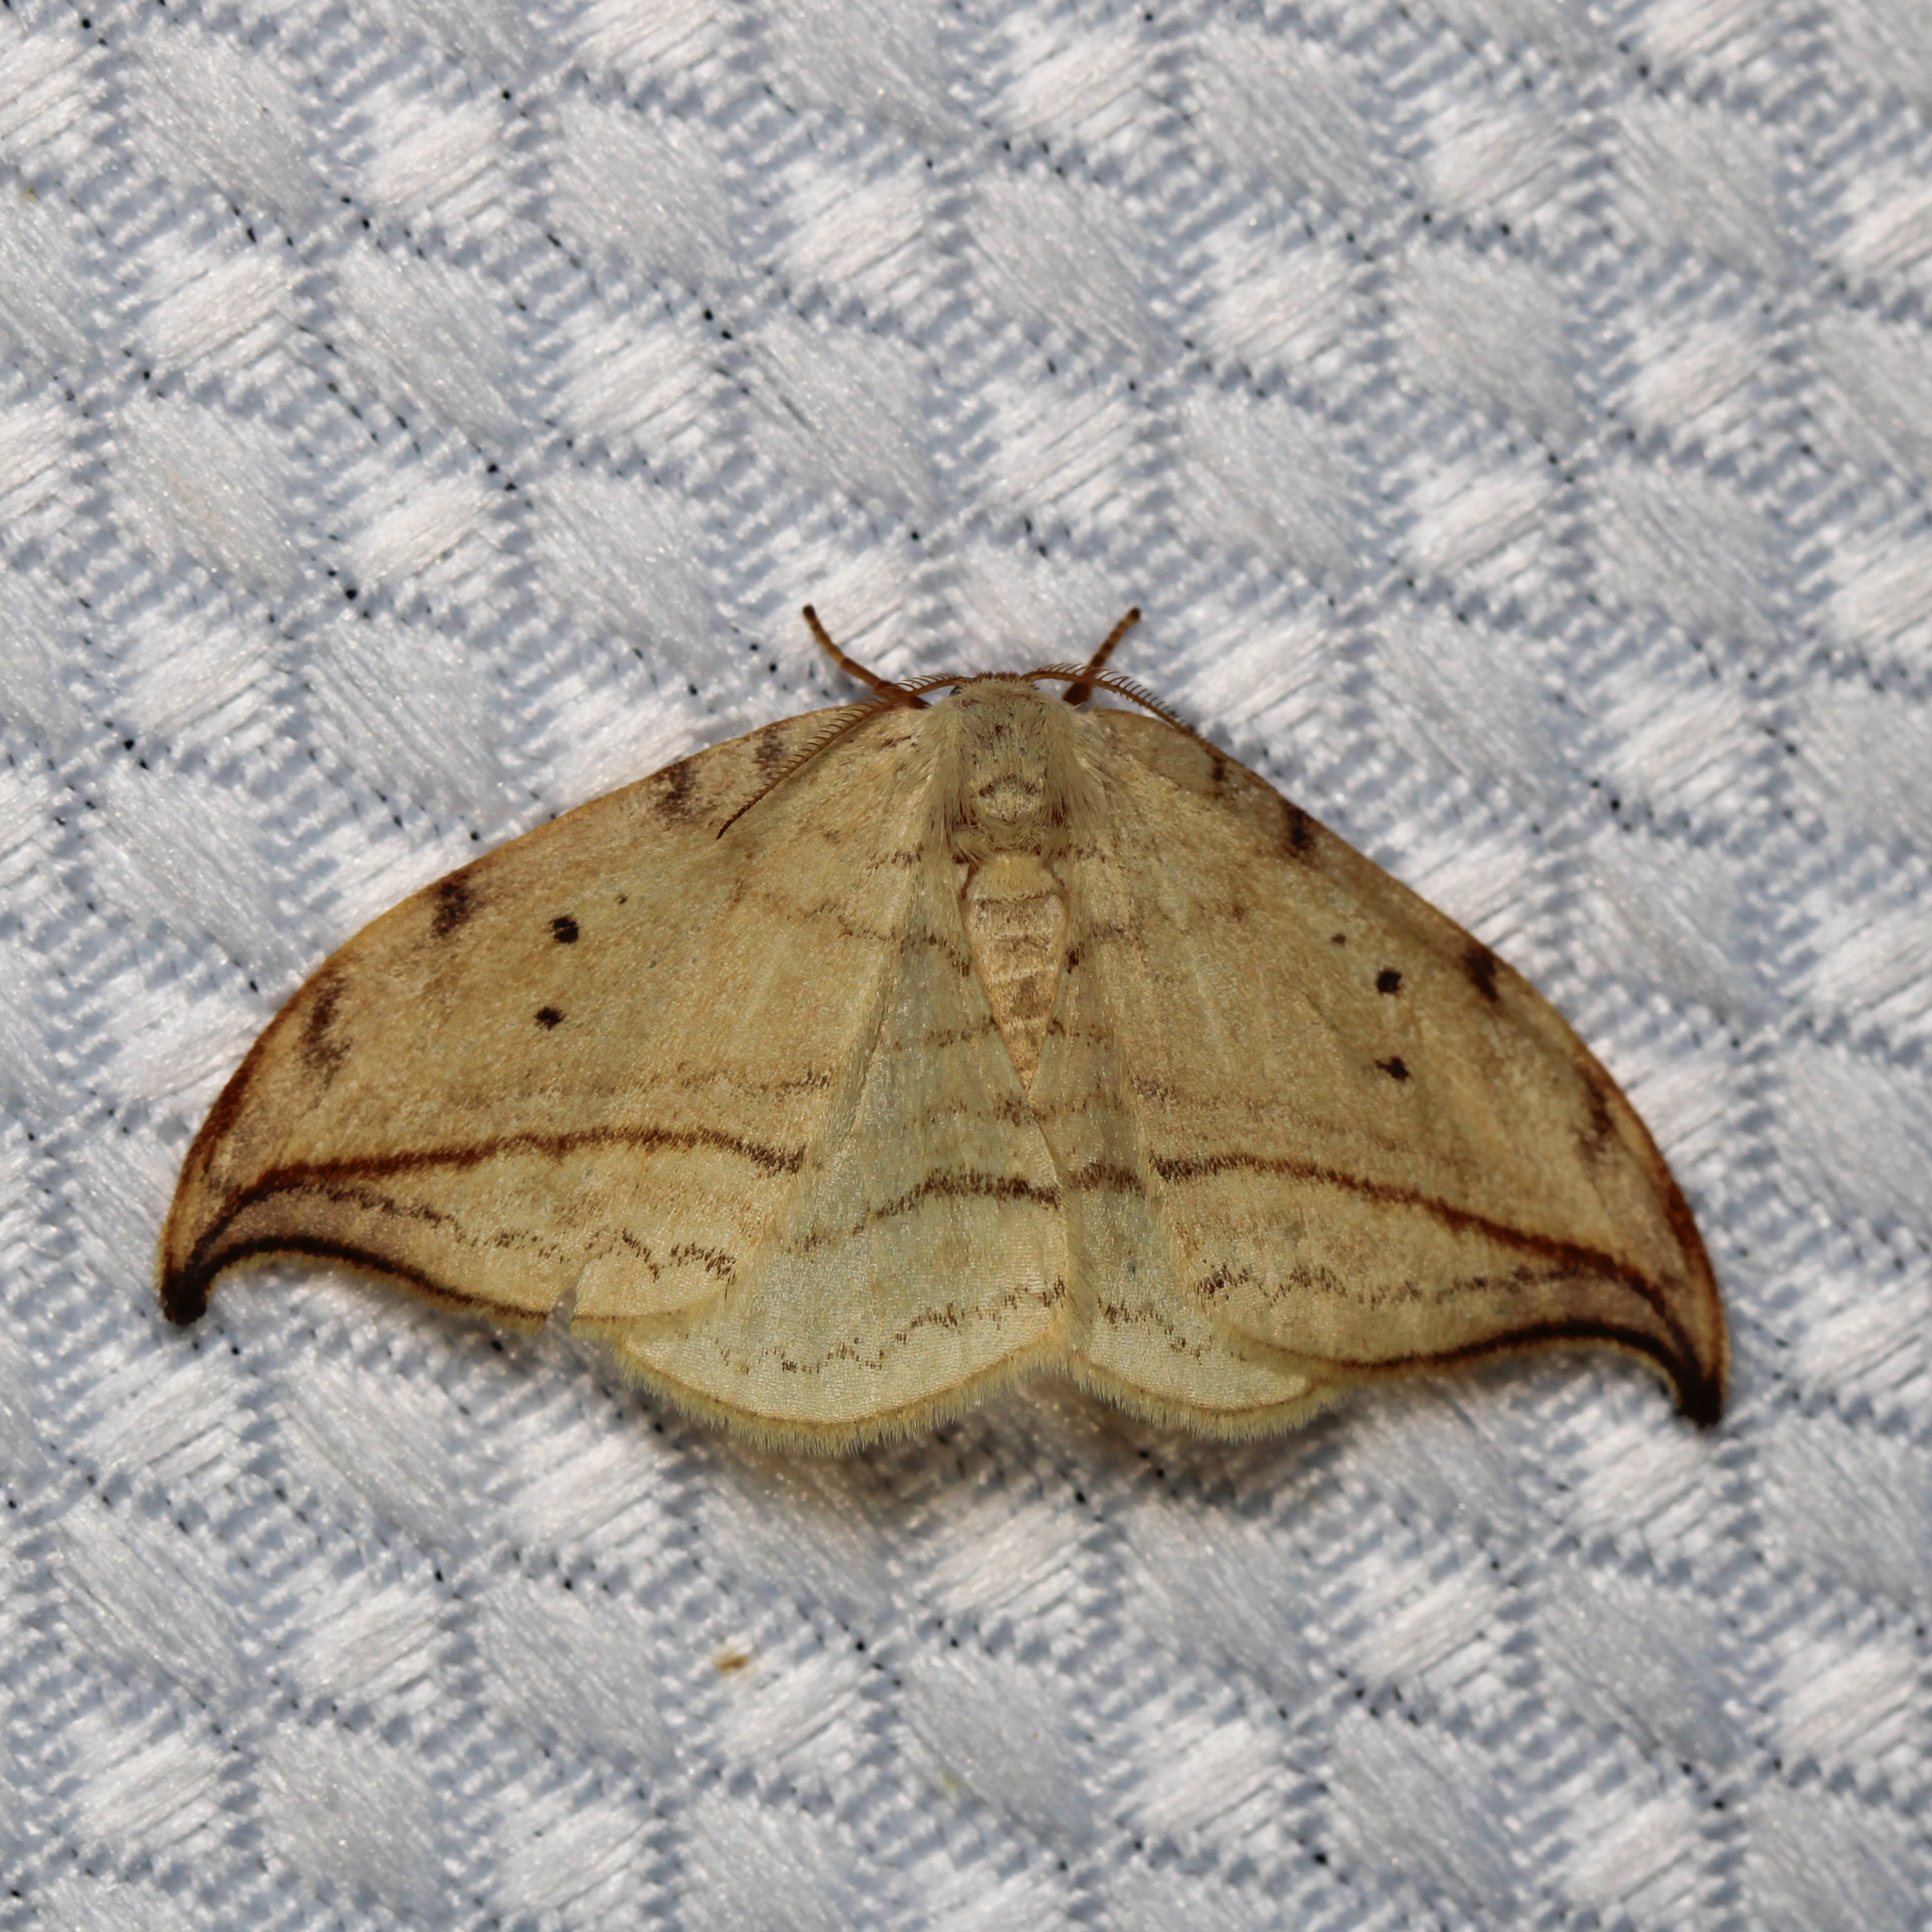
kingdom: Animalia
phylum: Arthropoda
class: Insecta
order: Lepidoptera
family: Drepanidae
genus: Drepana
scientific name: Drepana arcuata
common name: Arched hooktip moth
